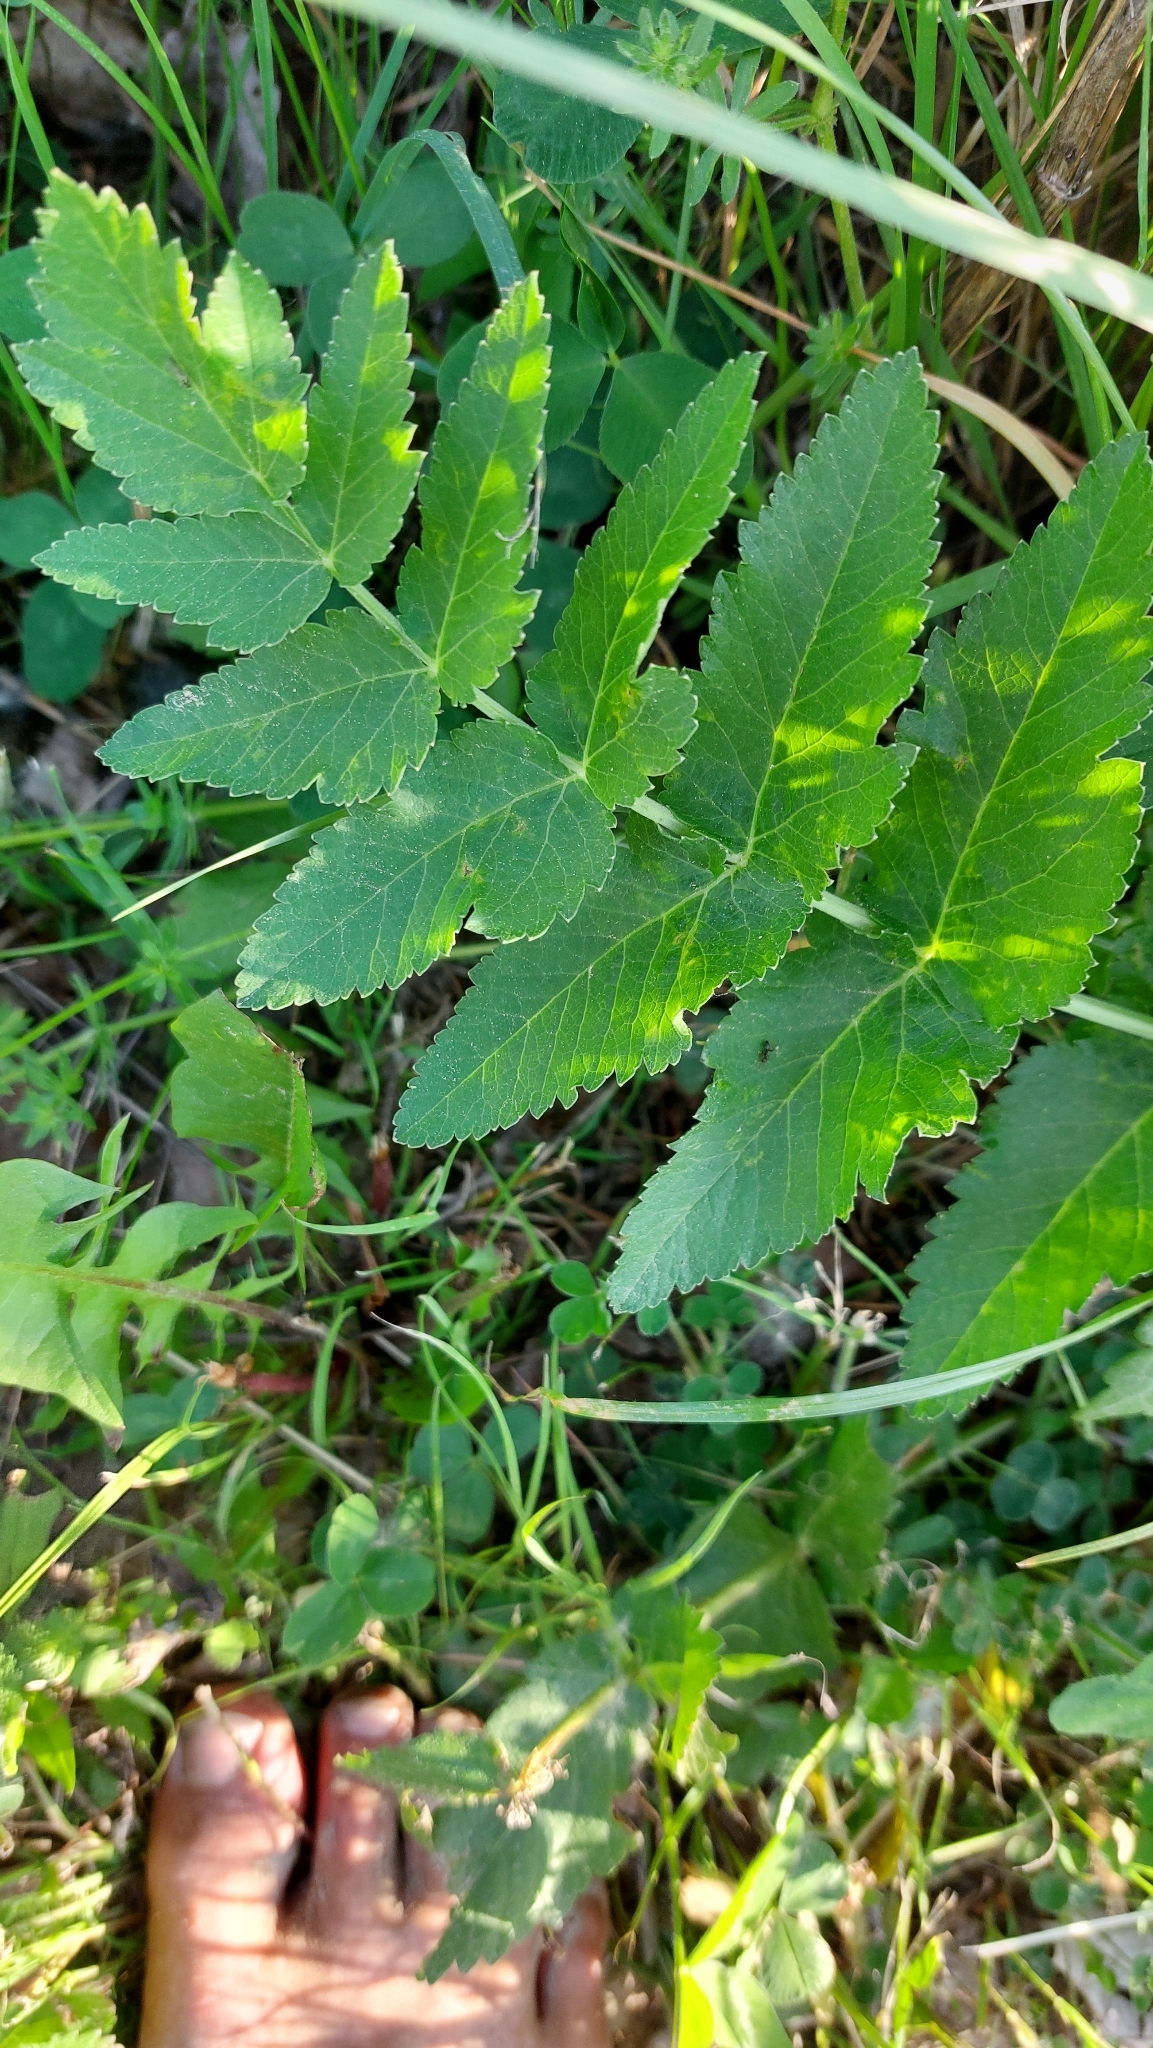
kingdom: Plantae
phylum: Tracheophyta
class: Magnoliopsida
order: Apiales
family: Apiaceae
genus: Pastinaca
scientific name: Pastinaca sativa
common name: Wild parsnip
